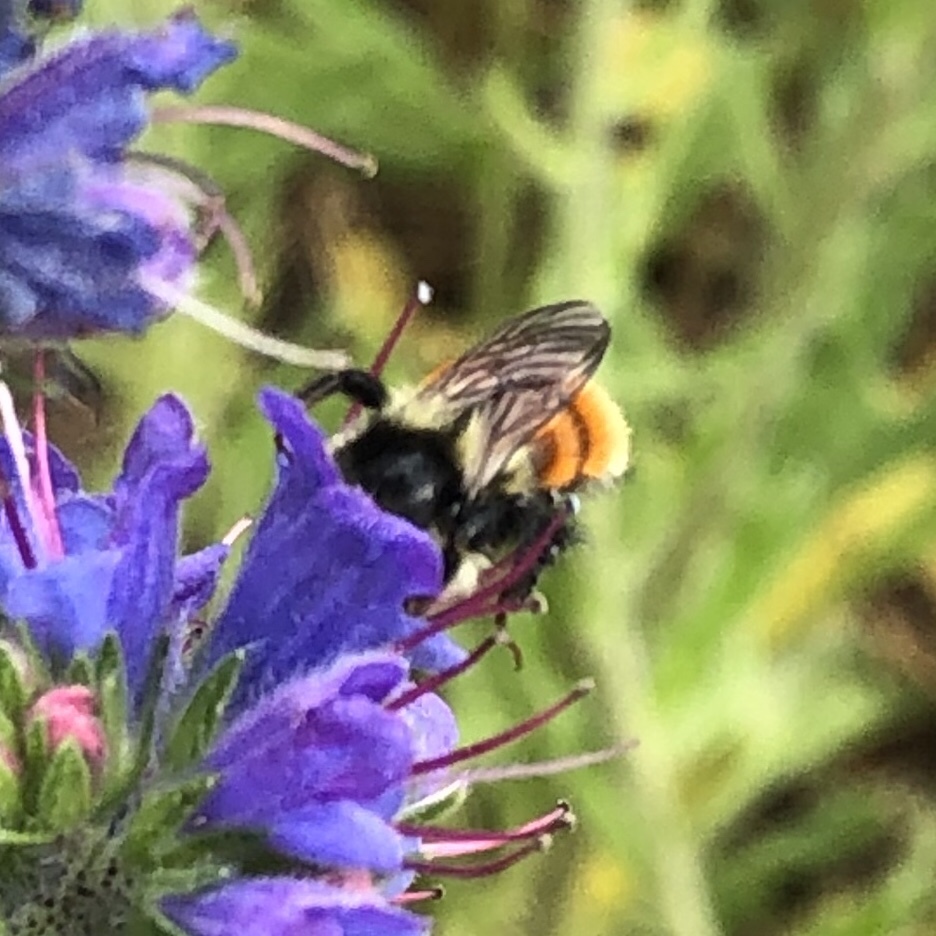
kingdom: Animalia
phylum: Arthropoda
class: Insecta
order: Hymenoptera
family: Apidae
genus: Bombus
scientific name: Bombus ternarius
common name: Tri-colored bumble bee
